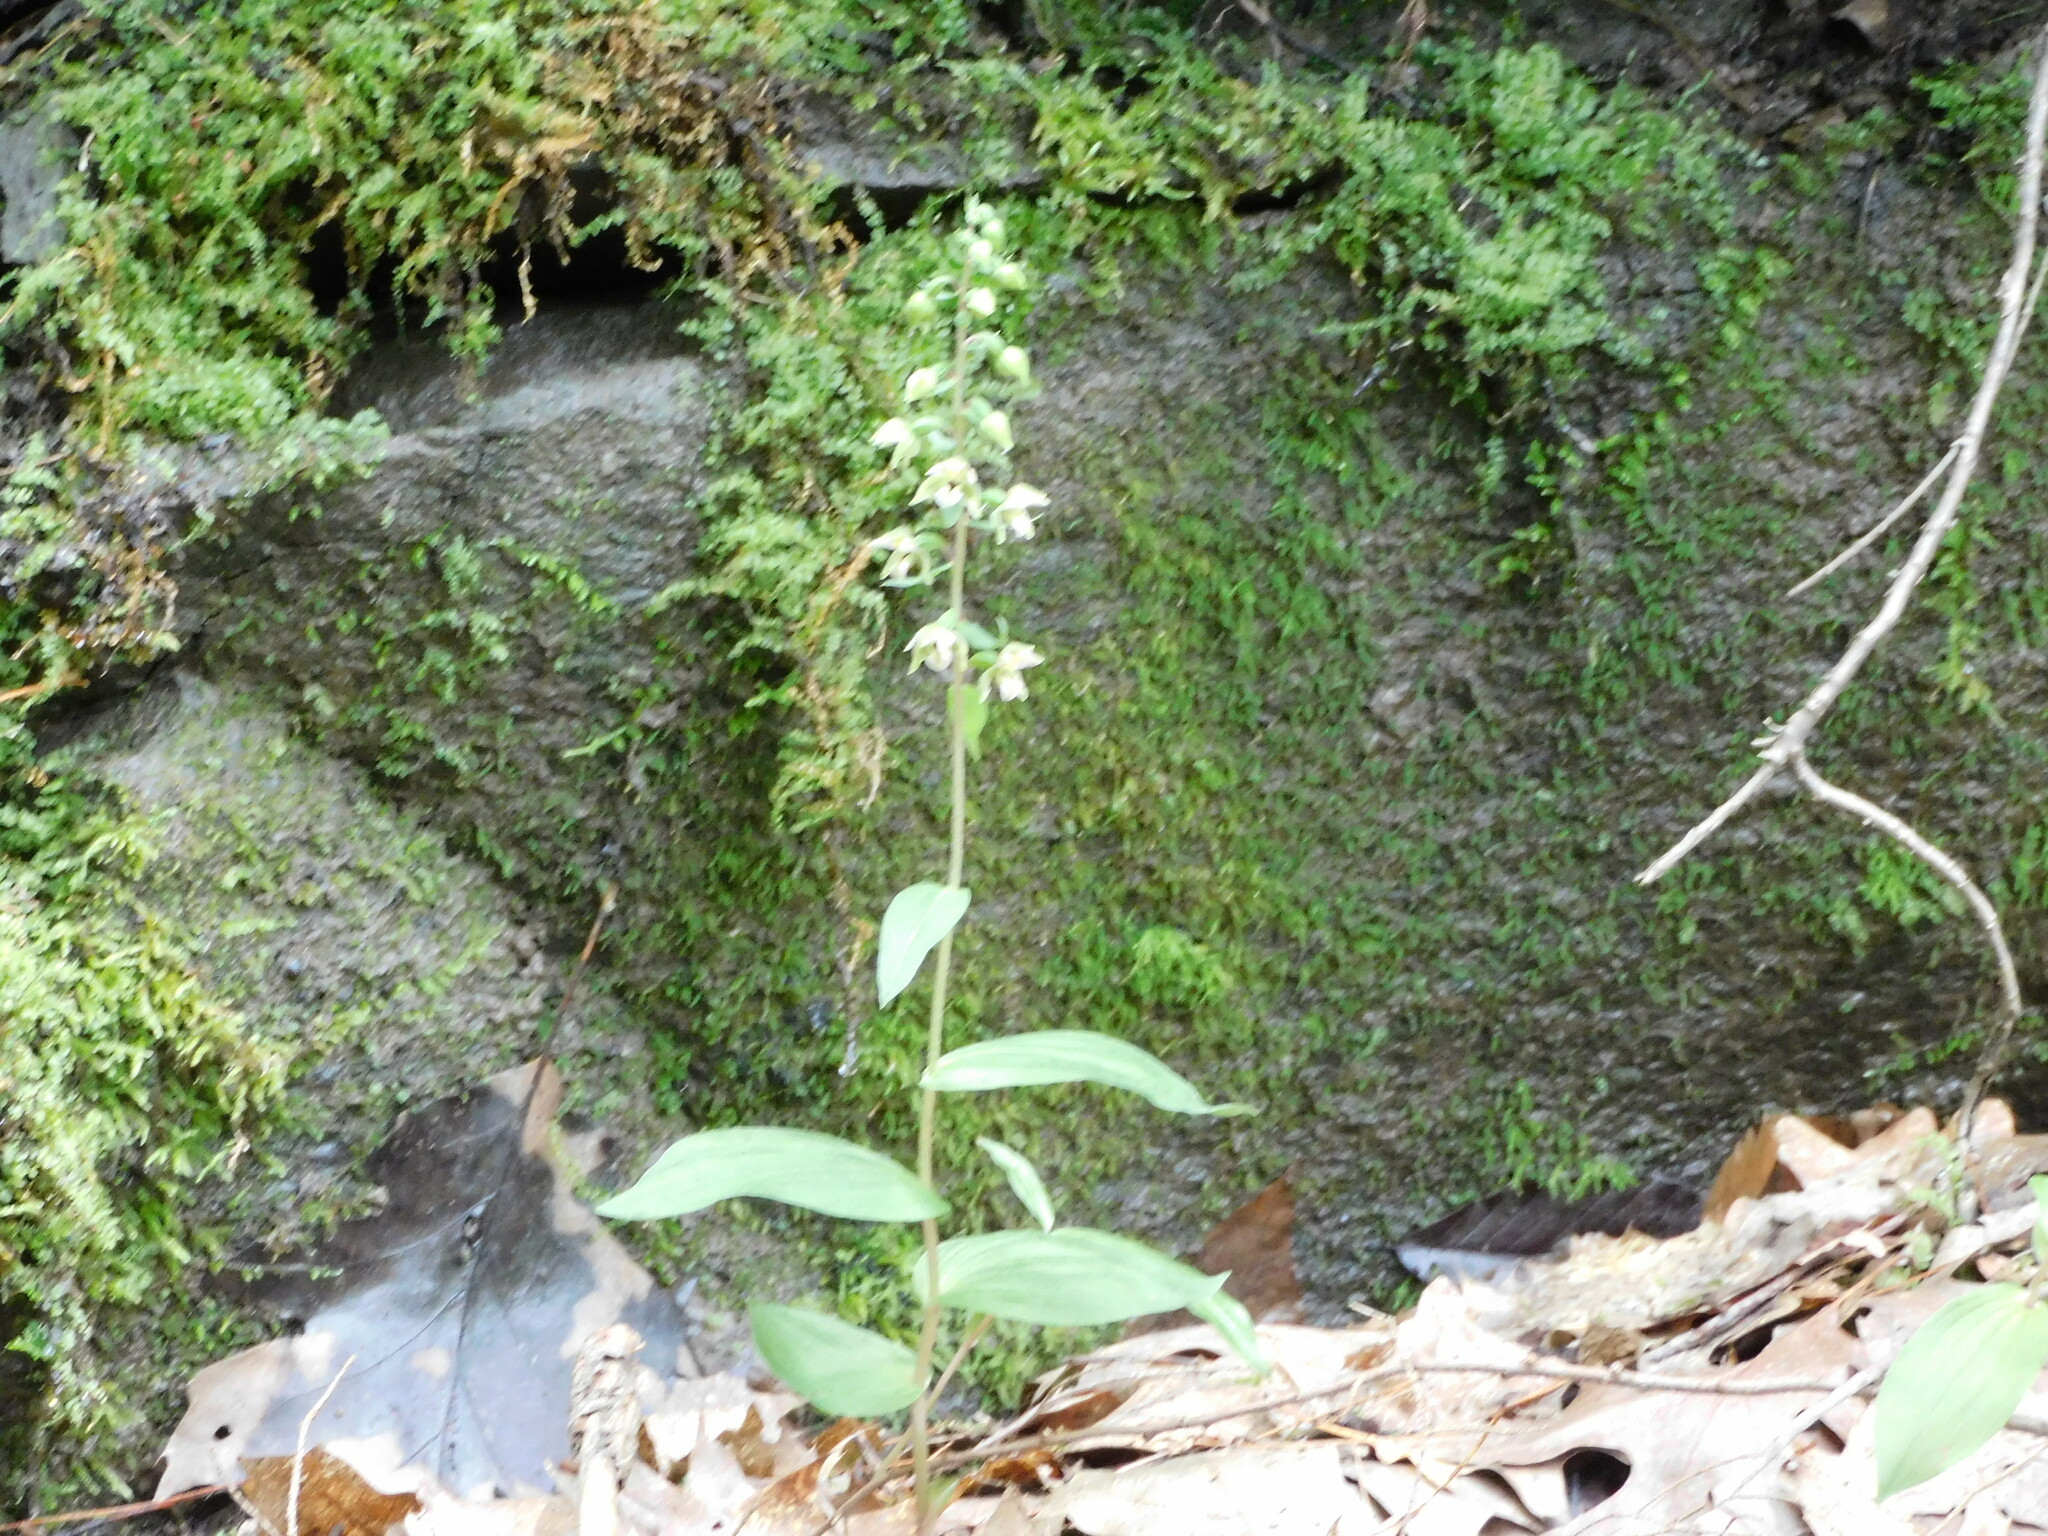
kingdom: Plantae
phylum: Tracheophyta
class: Liliopsida
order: Asparagales
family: Orchidaceae
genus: Epipactis
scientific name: Epipactis helleborine
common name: Broad-leaved helleborine
